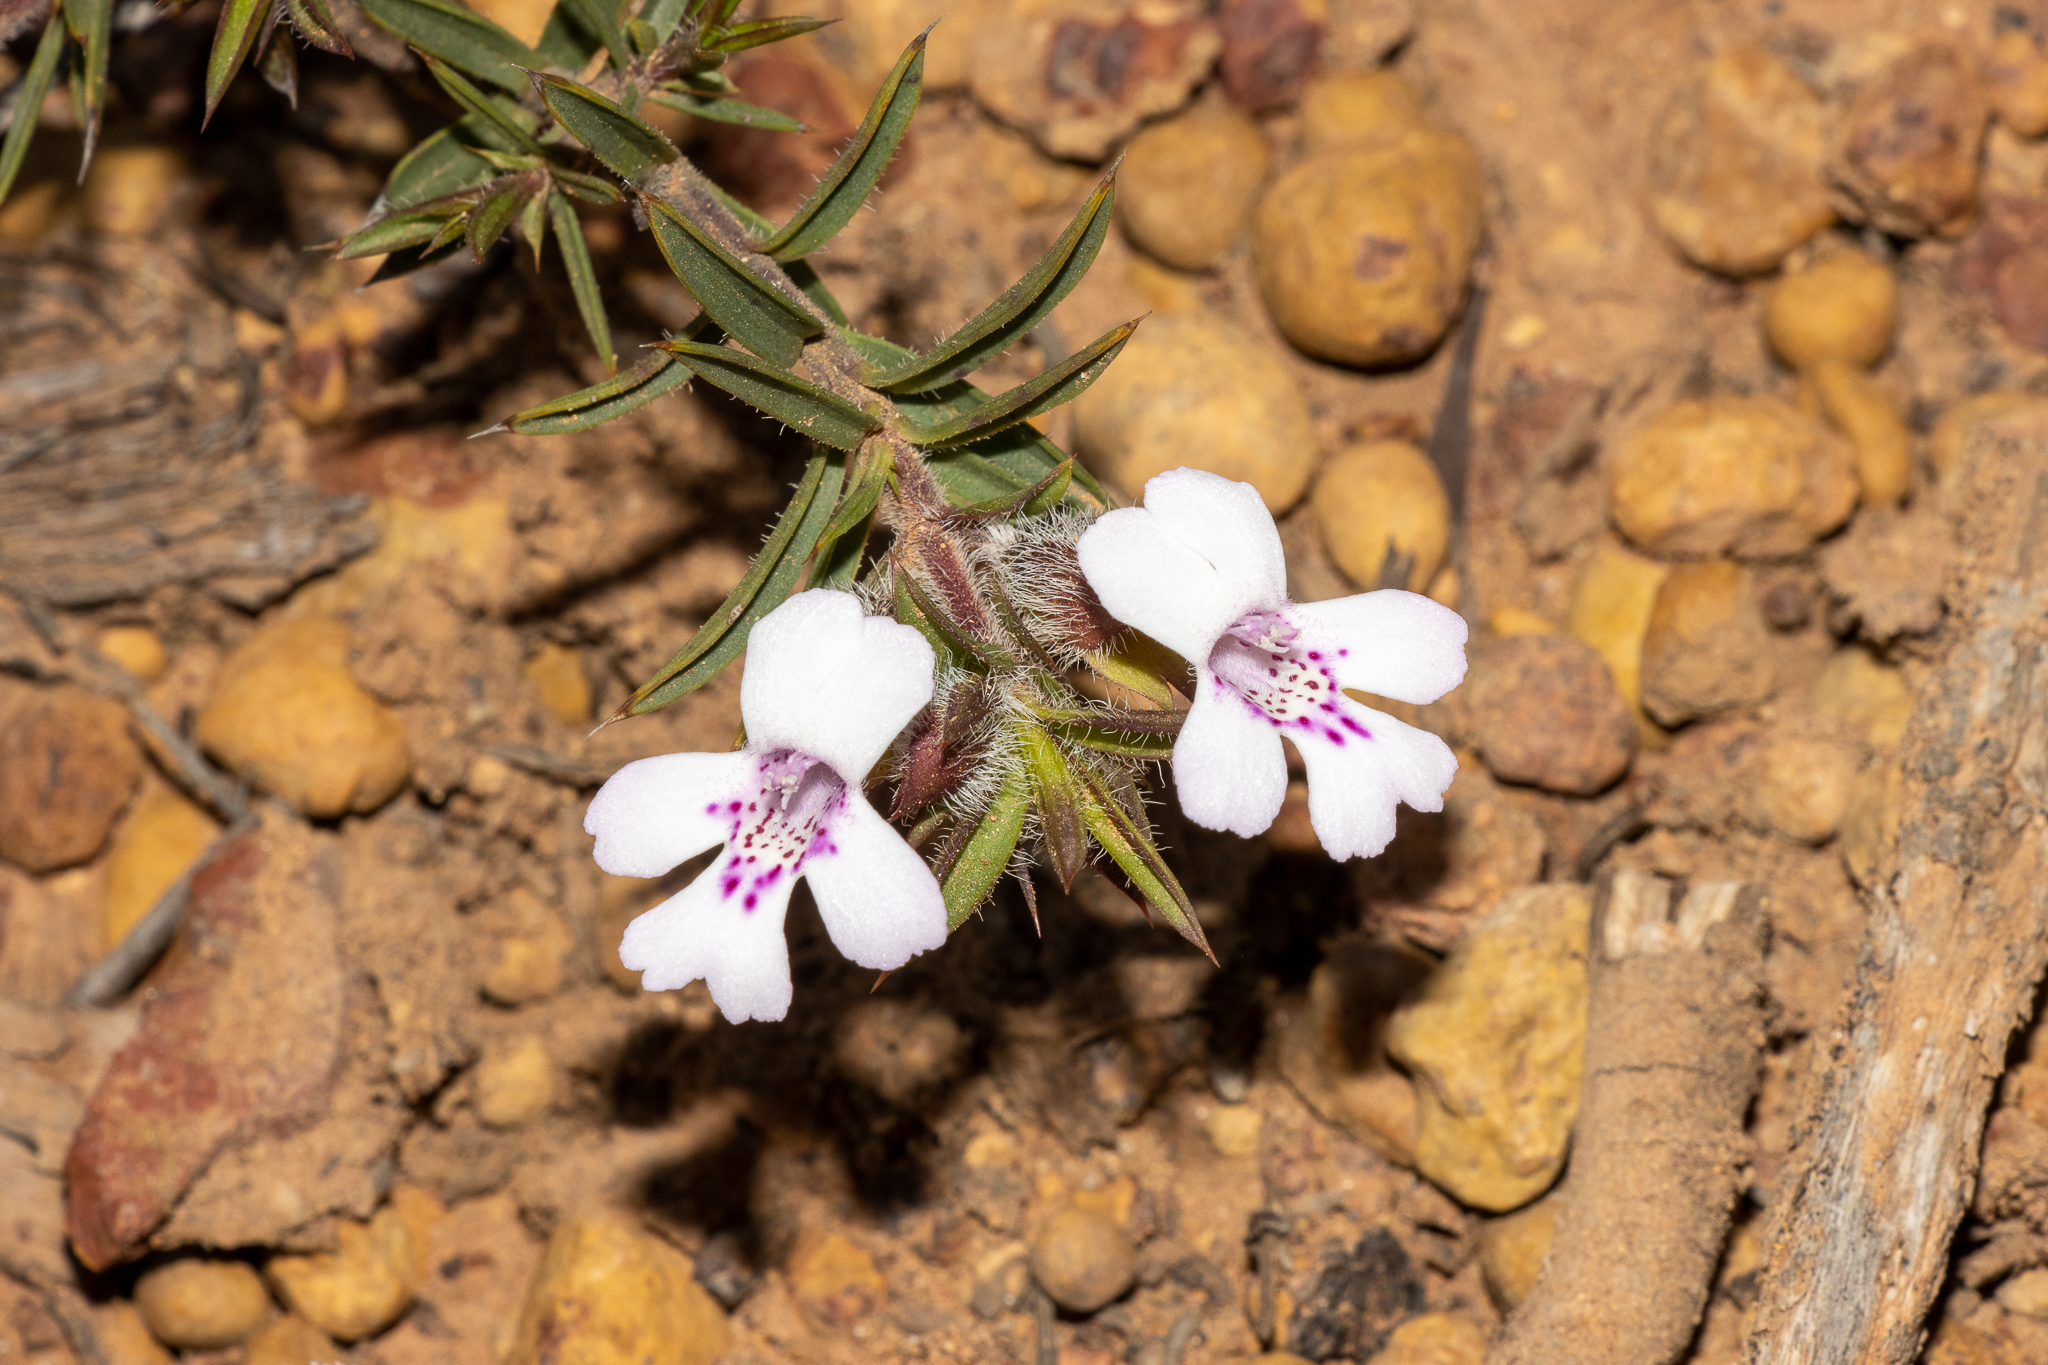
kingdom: Plantae
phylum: Tracheophyta
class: Magnoliopsida
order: Lamiales
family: Lamiaceae
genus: Hemiandra
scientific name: Hemiandra pungens
